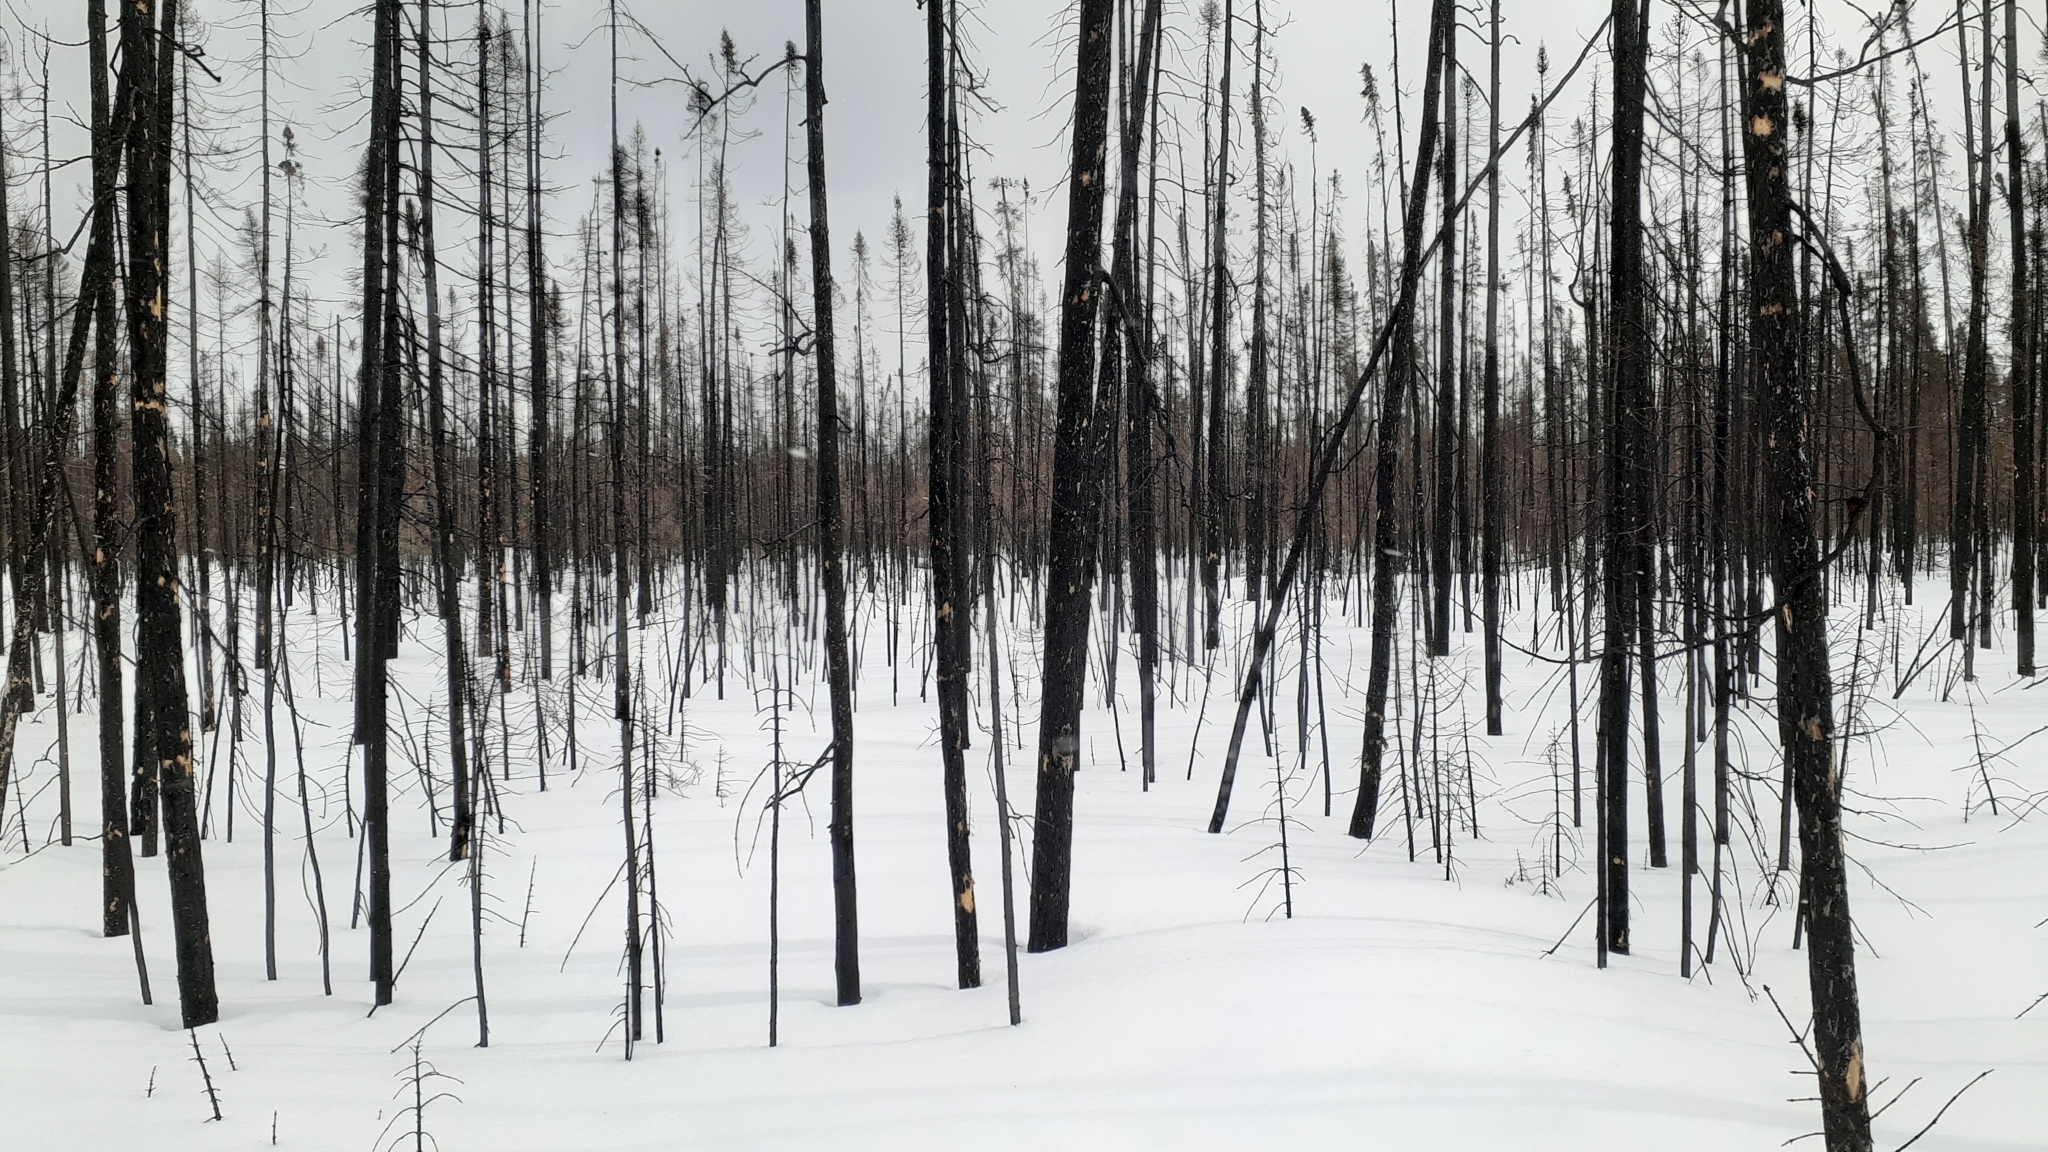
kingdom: Plantae
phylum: Tracheophyta
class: Pinopsida
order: Pinales
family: Pinaceae
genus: Picea
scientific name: Picea mariana
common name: Black spruce
